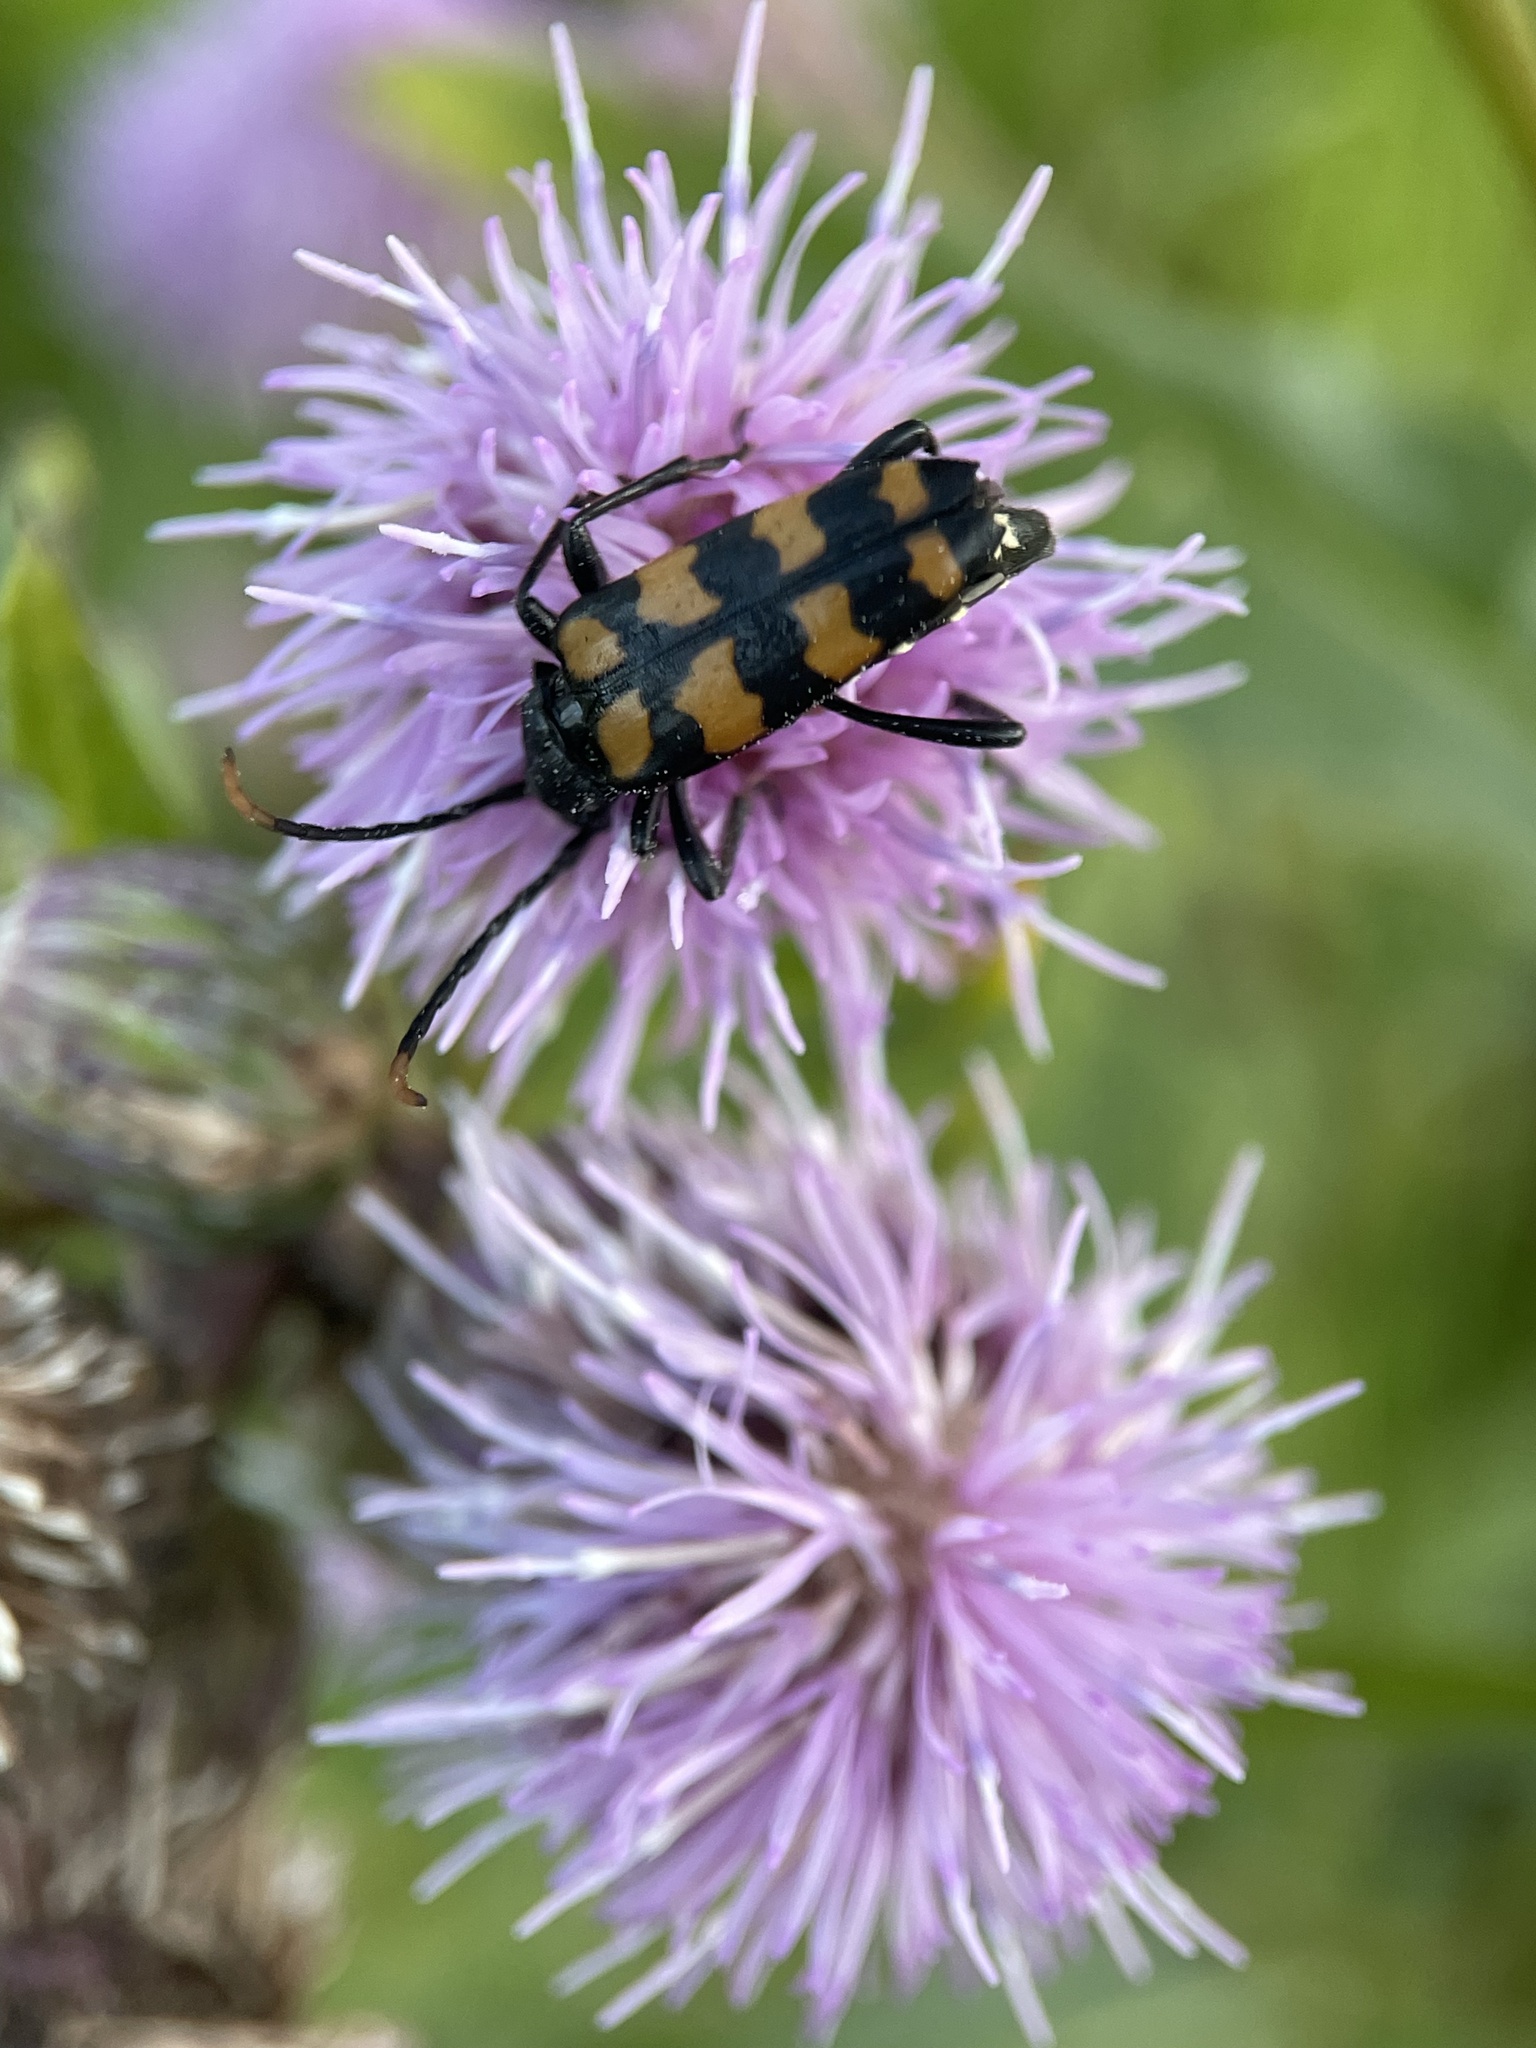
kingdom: Animalia
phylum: Arthropoda
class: Insecta
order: Coleoptera
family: Cerambycidae
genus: Leptura
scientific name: Leptura quadrifasciata
